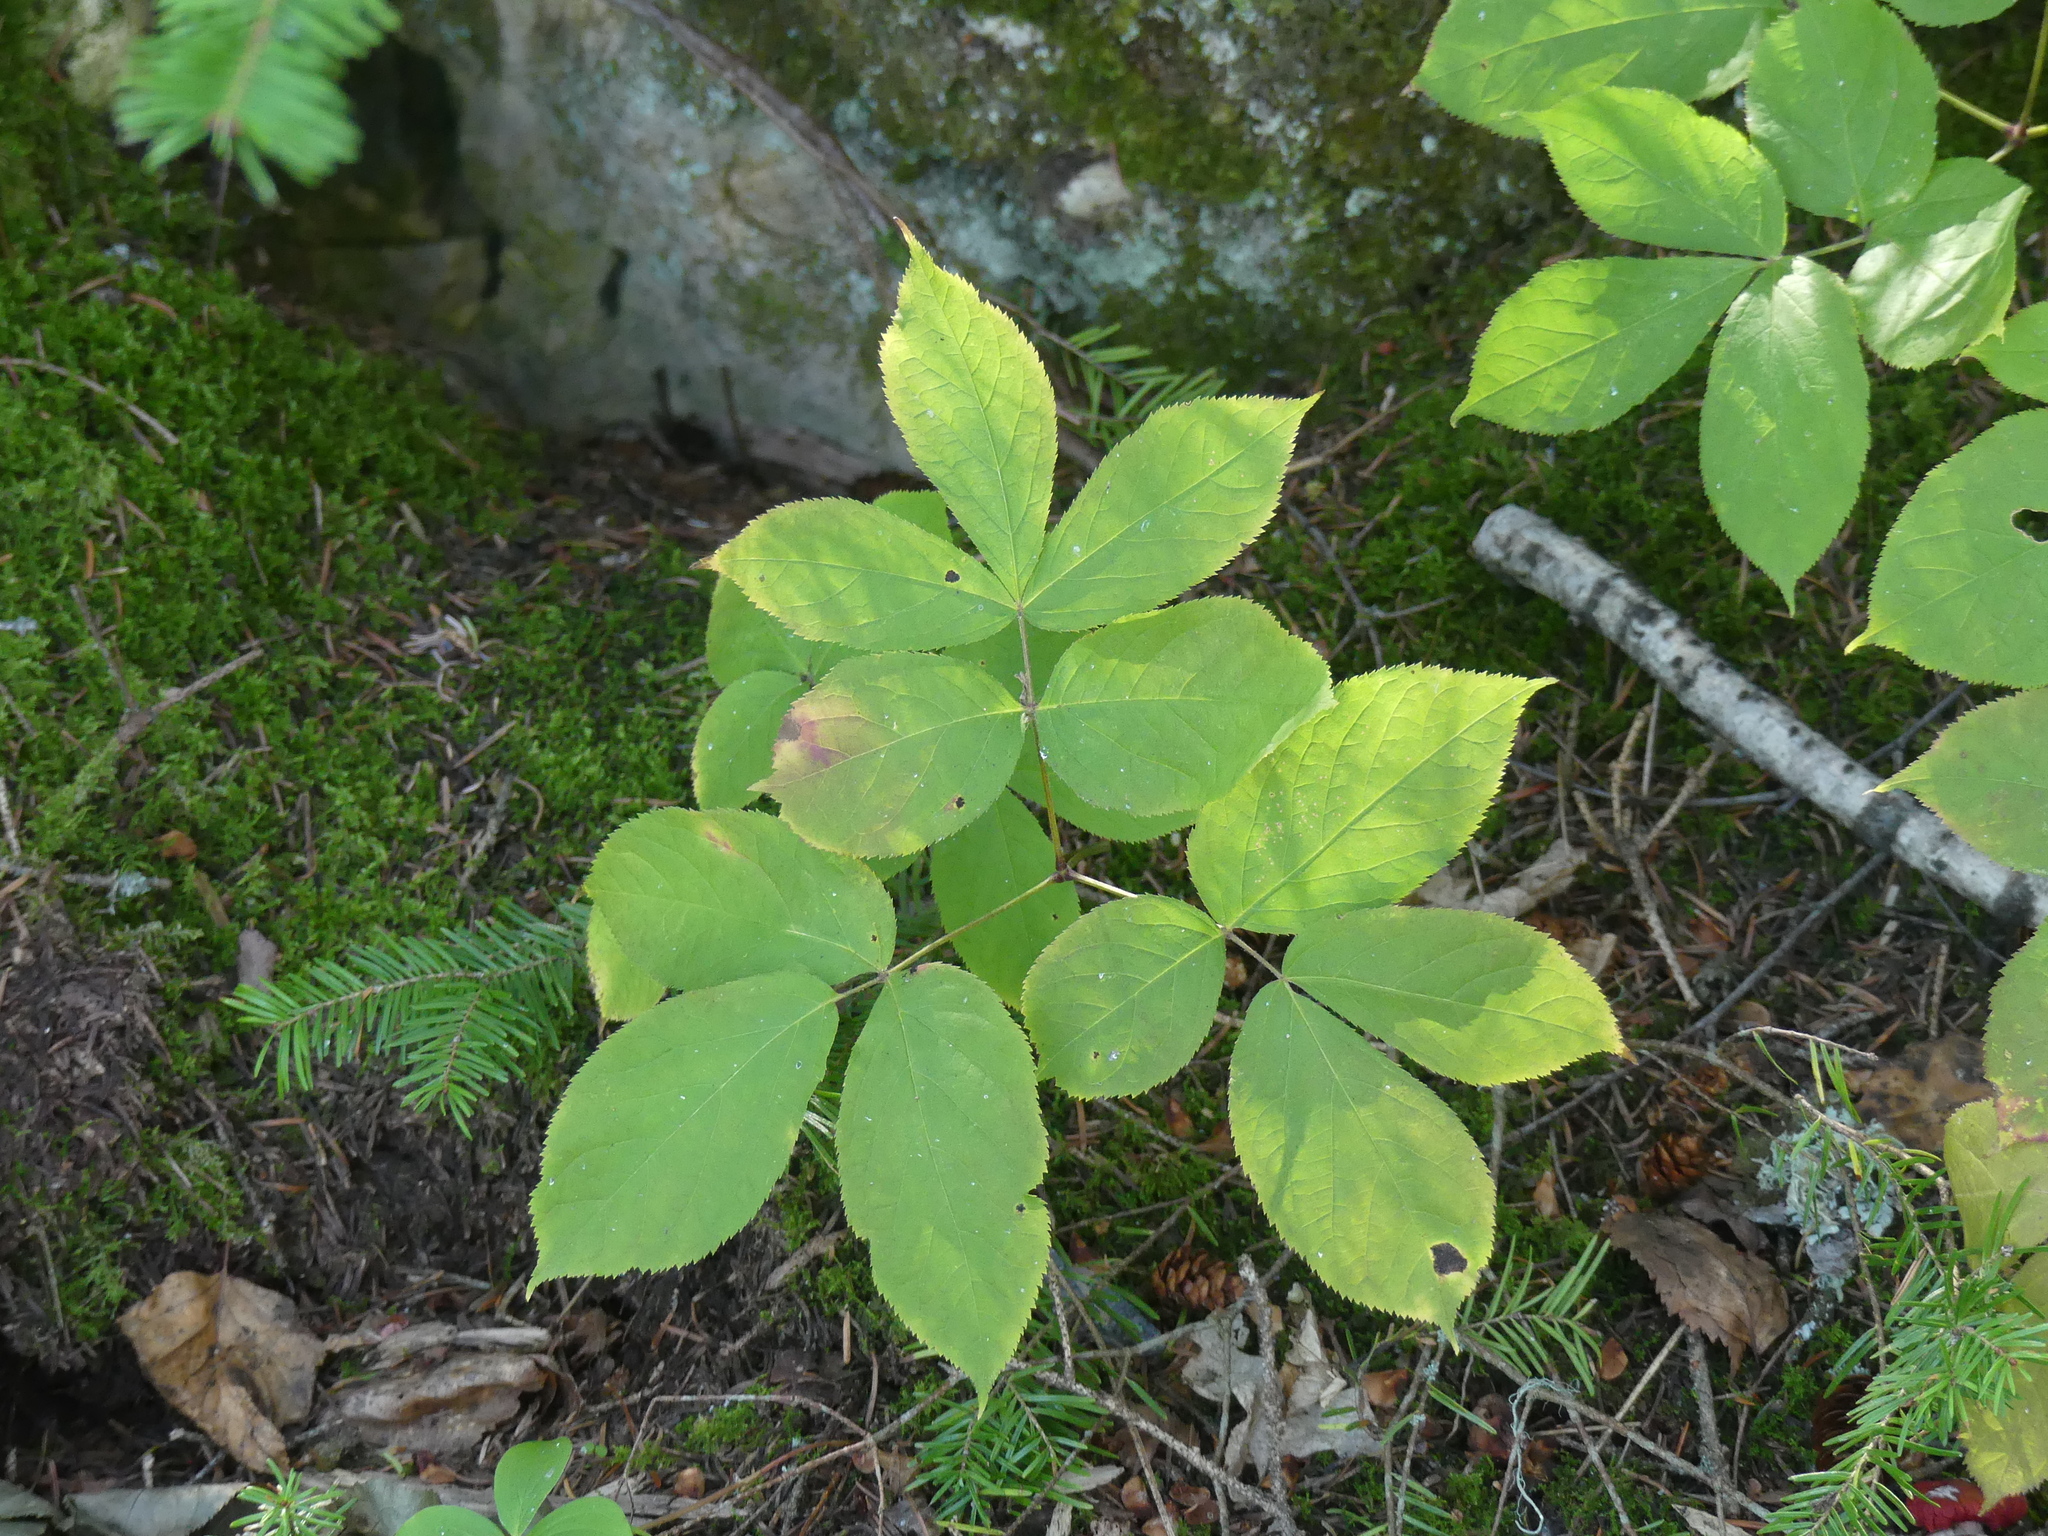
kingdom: Plantae
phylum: Tracheophyta
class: Magnoliopsida
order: Apiales
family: Araliaceae
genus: Aralia
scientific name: Aralia nudicaulis
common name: Wild sarsaparilla
